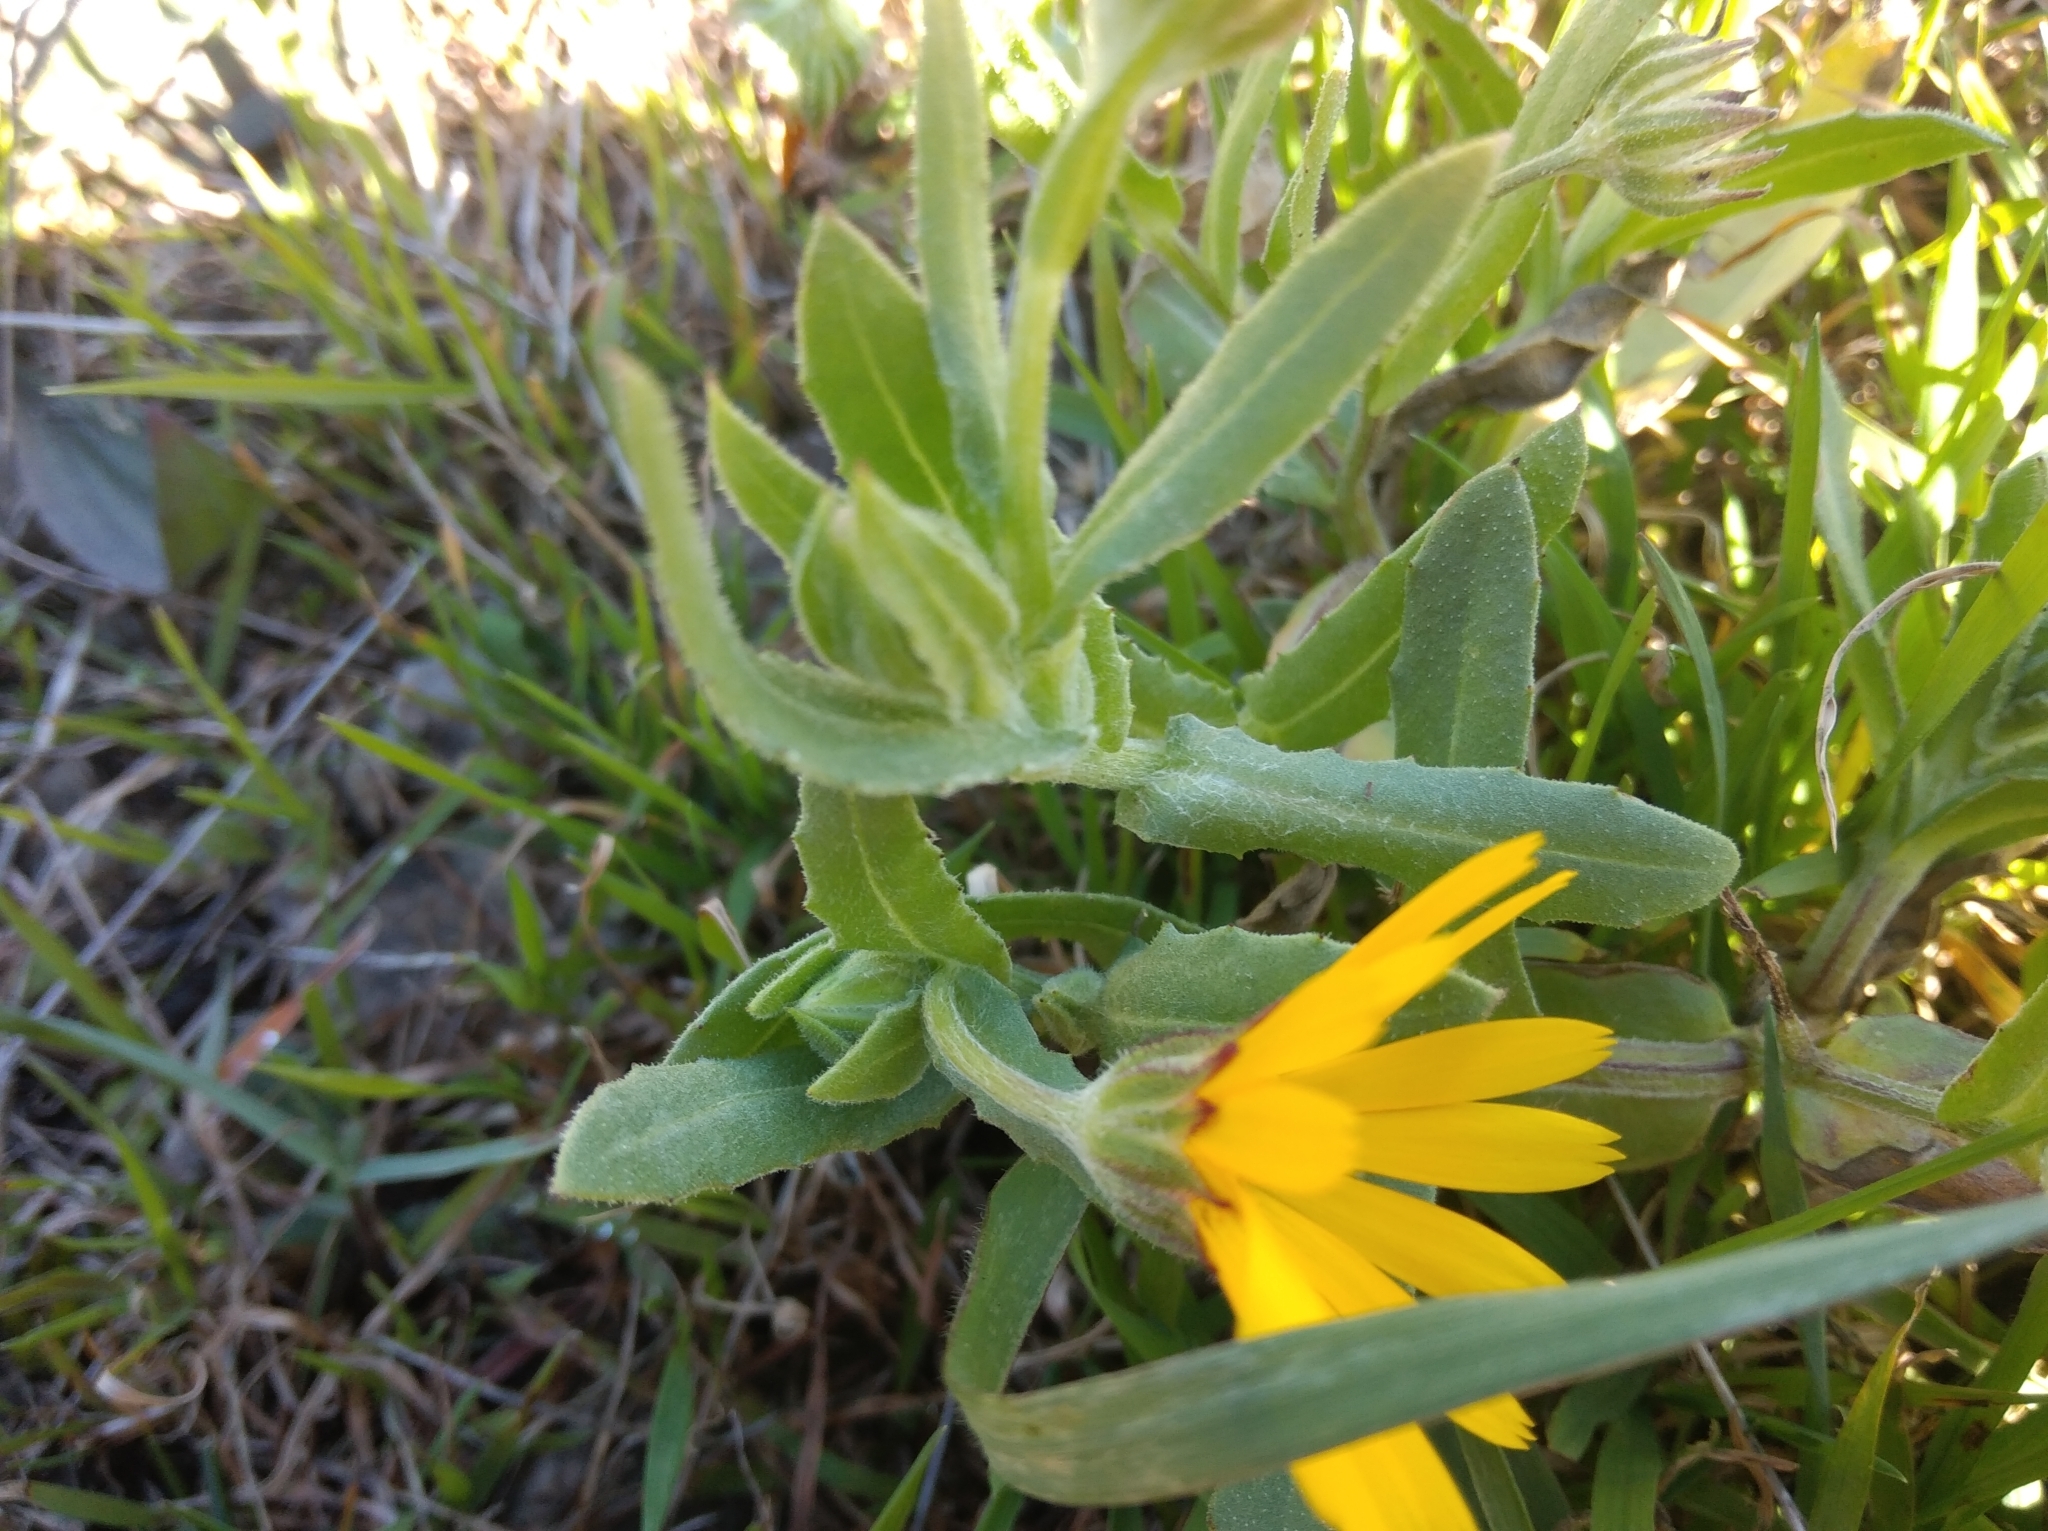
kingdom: Plantae
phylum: Tracheophyta
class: Magnoliopsida
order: Asterales
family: Asteraceae
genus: Calendula
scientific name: Calendula arvensis
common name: Field marigold
